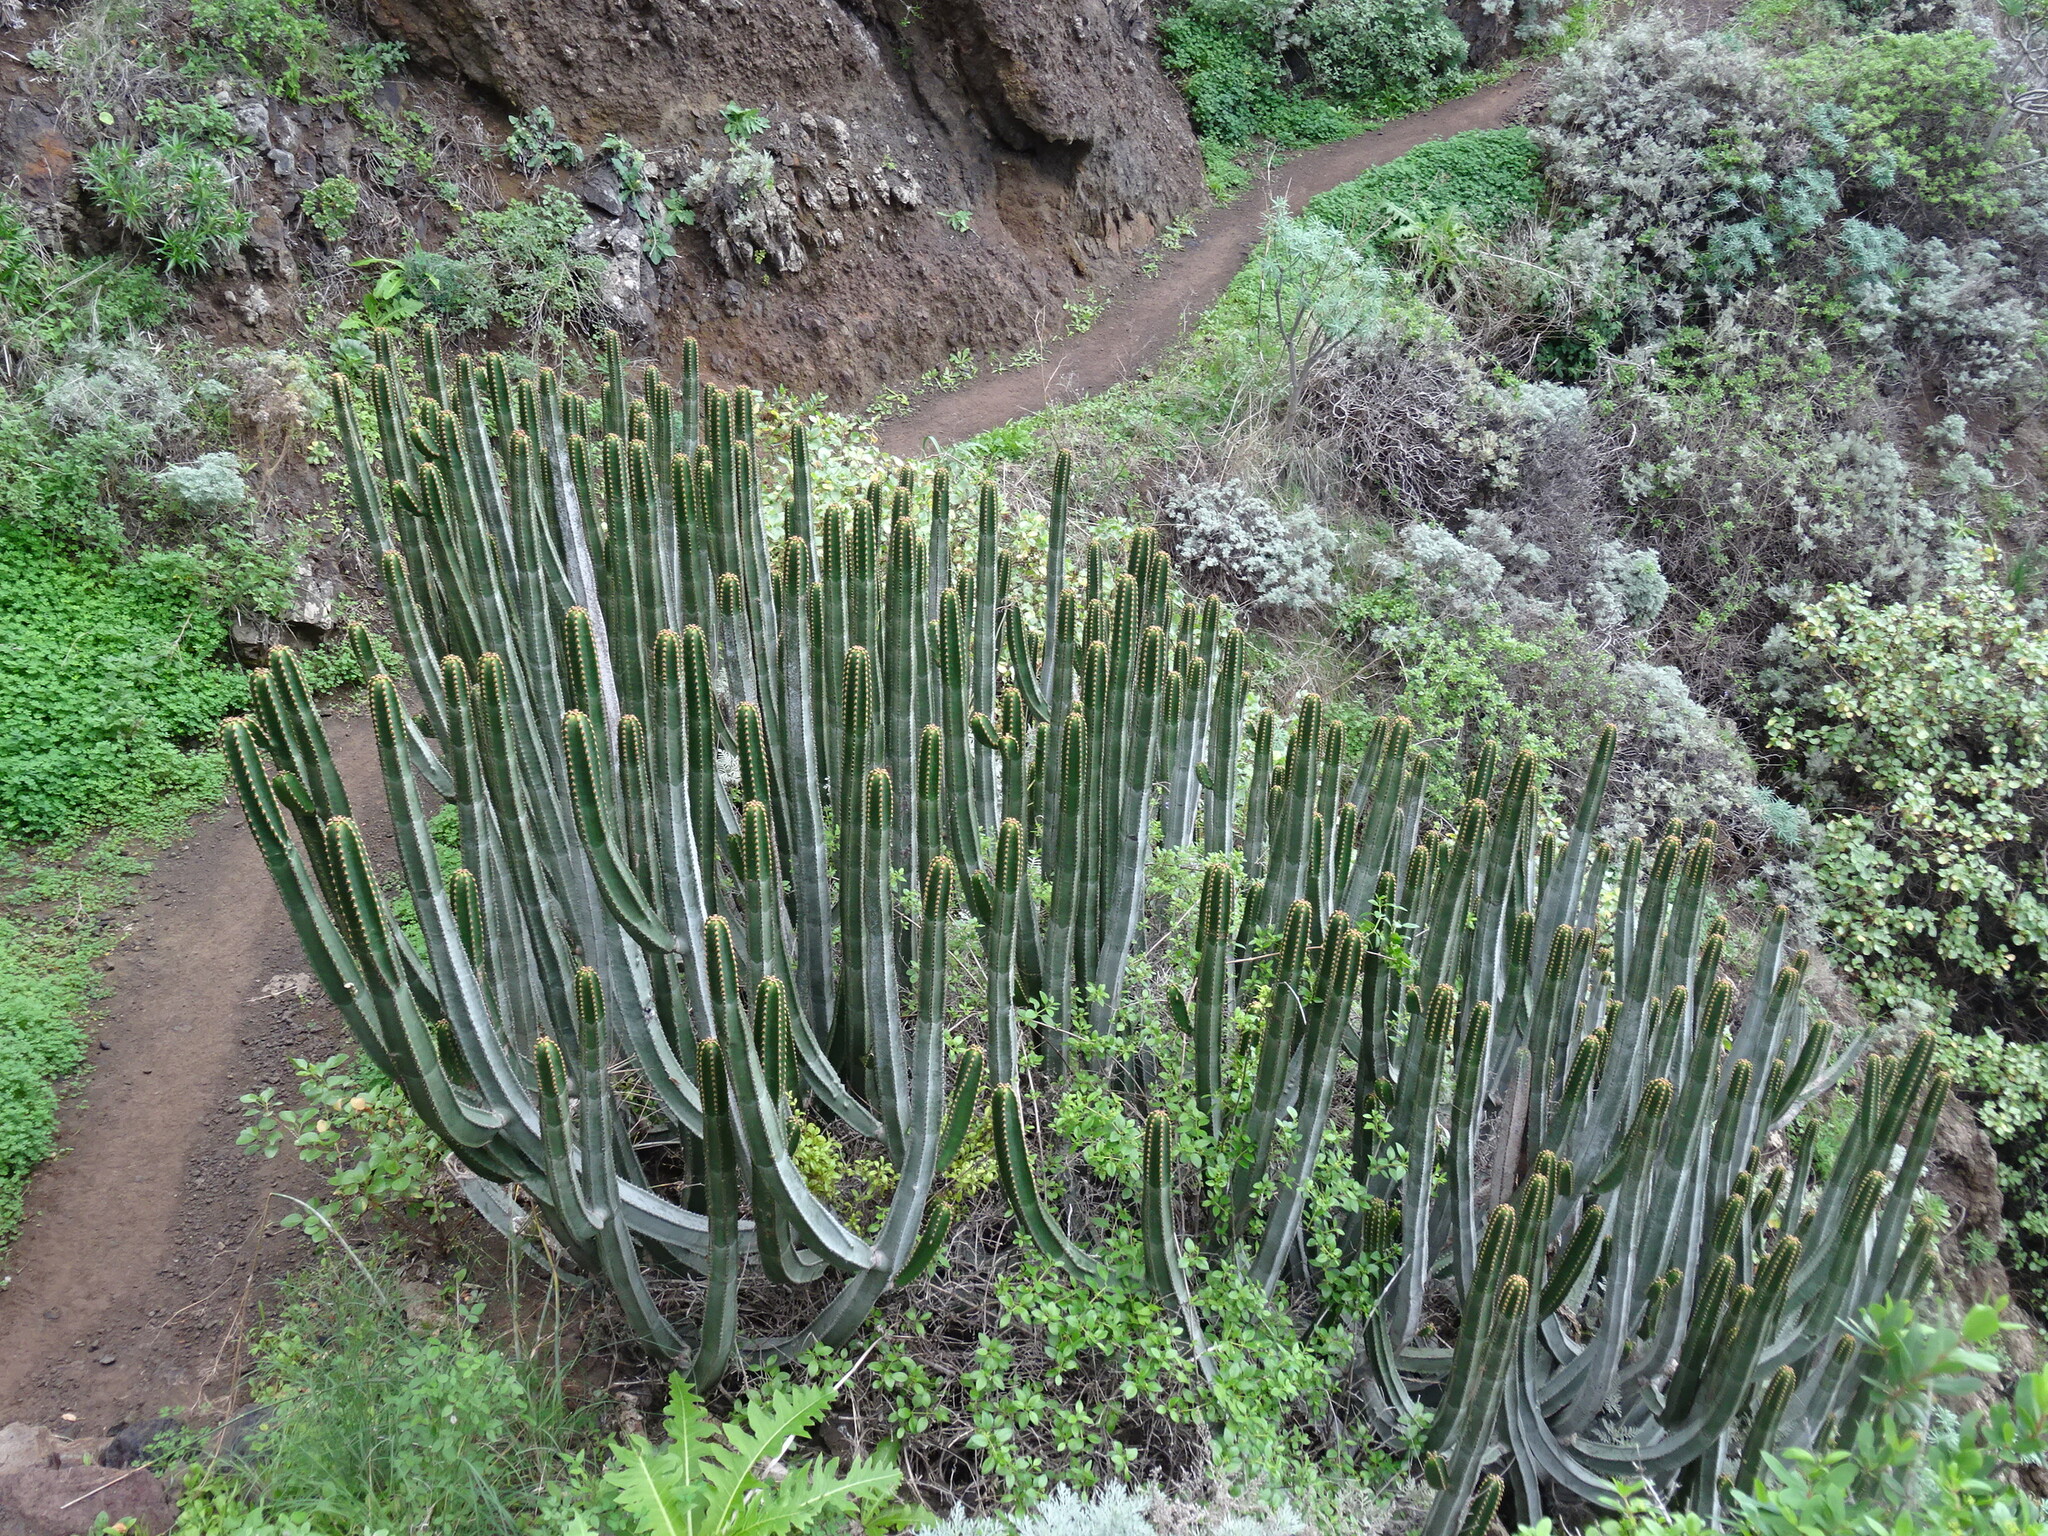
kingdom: Plantae
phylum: Tracheophyta
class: Magnoliopsida
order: Malpighiales
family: Euphorbiaceae
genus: Euphorbia
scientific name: Euphorbia canariensis
